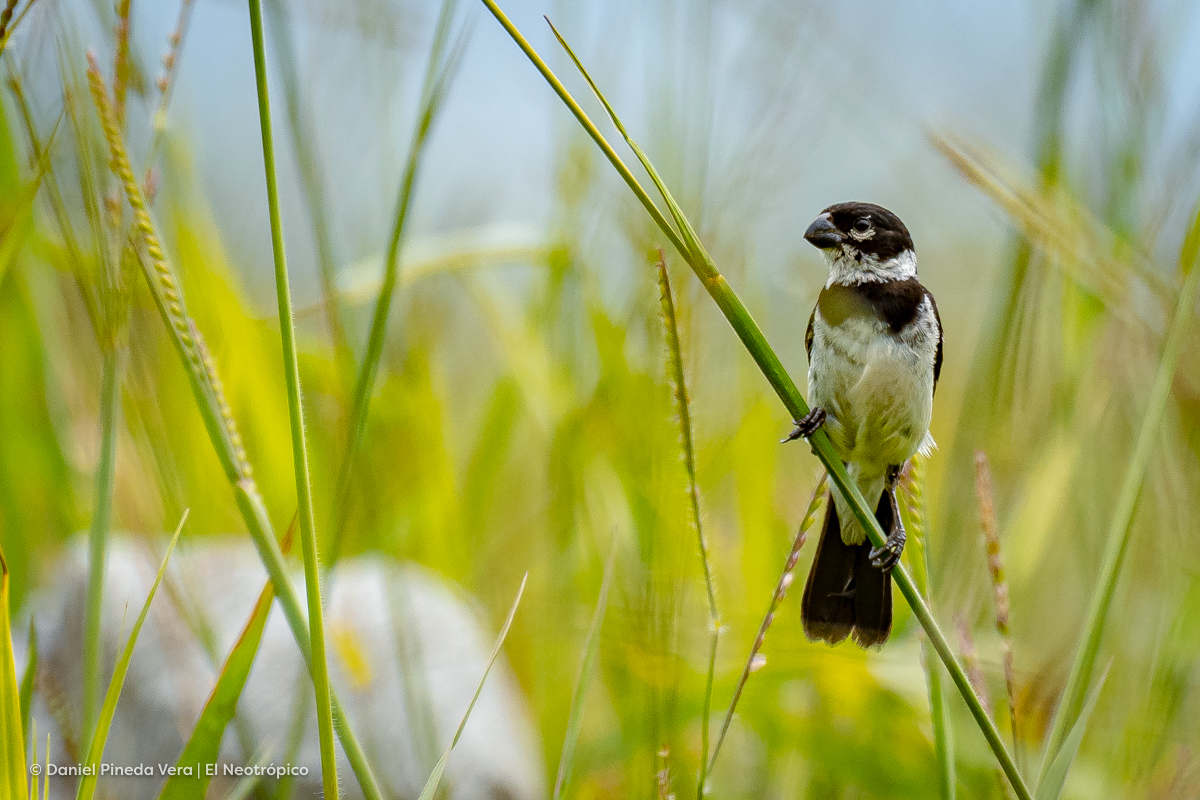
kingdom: Animalia
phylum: Chordata
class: Aves
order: Passeriformes
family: Thraupidae
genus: Sporophila
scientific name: Sporophila morelleti
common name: Morelet's seedeater
